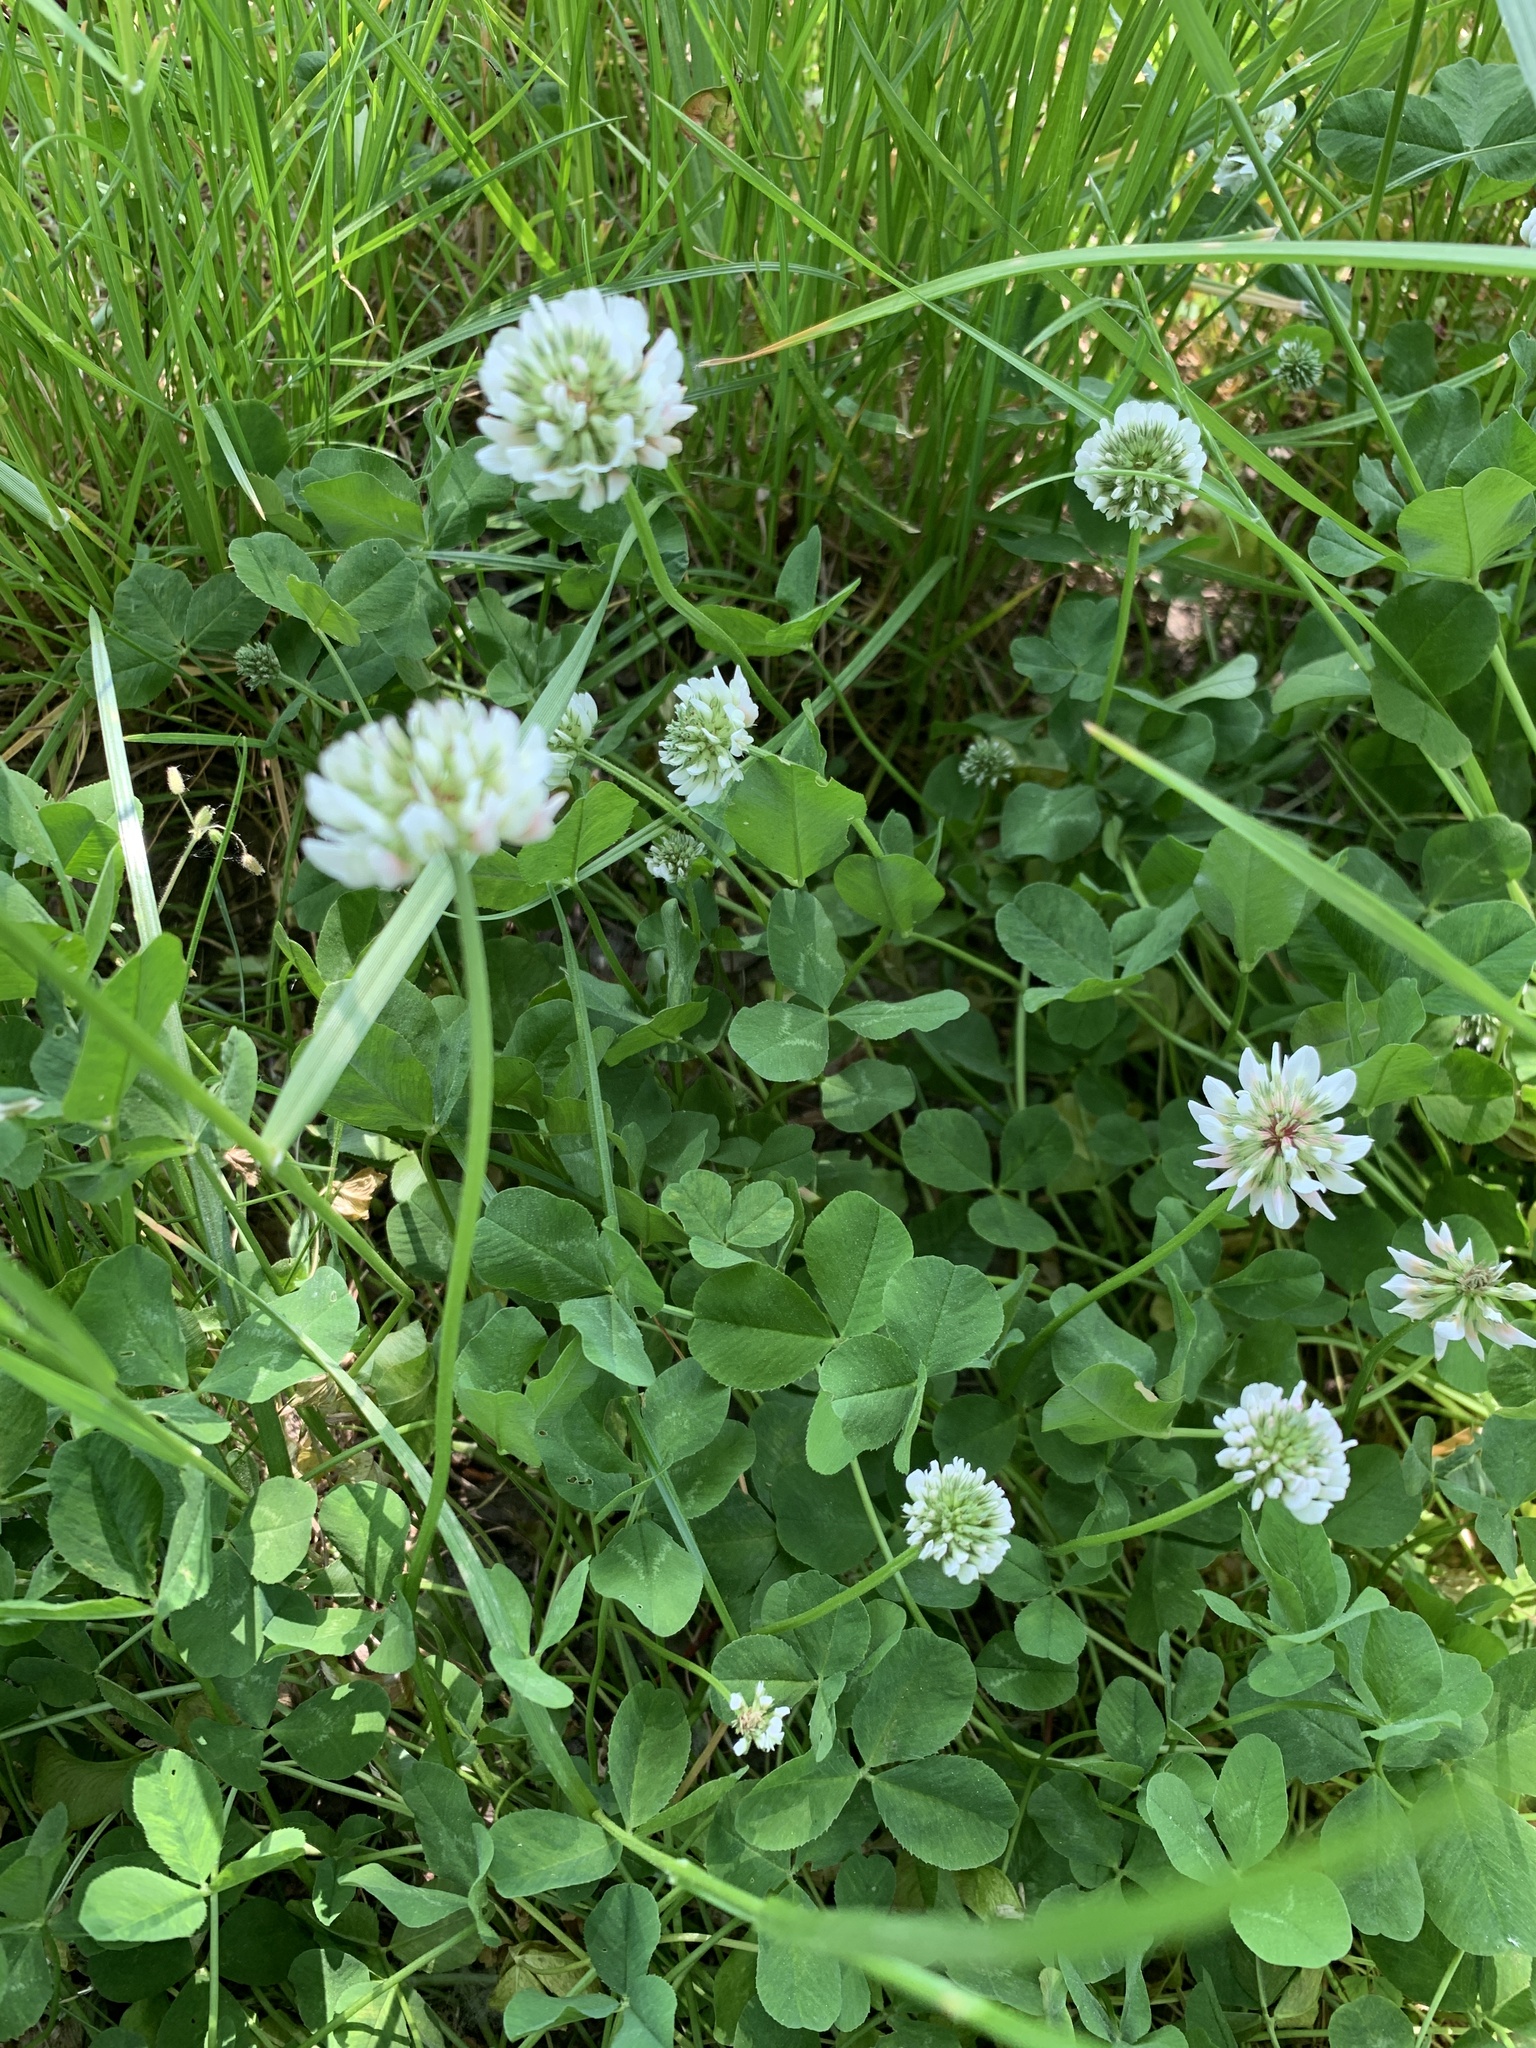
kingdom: Plantae
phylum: Tracheophyta
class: Magnoliopsida
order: Fabales
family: Fabaceae
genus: Trifolium
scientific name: Trifolium repens
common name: White clover
